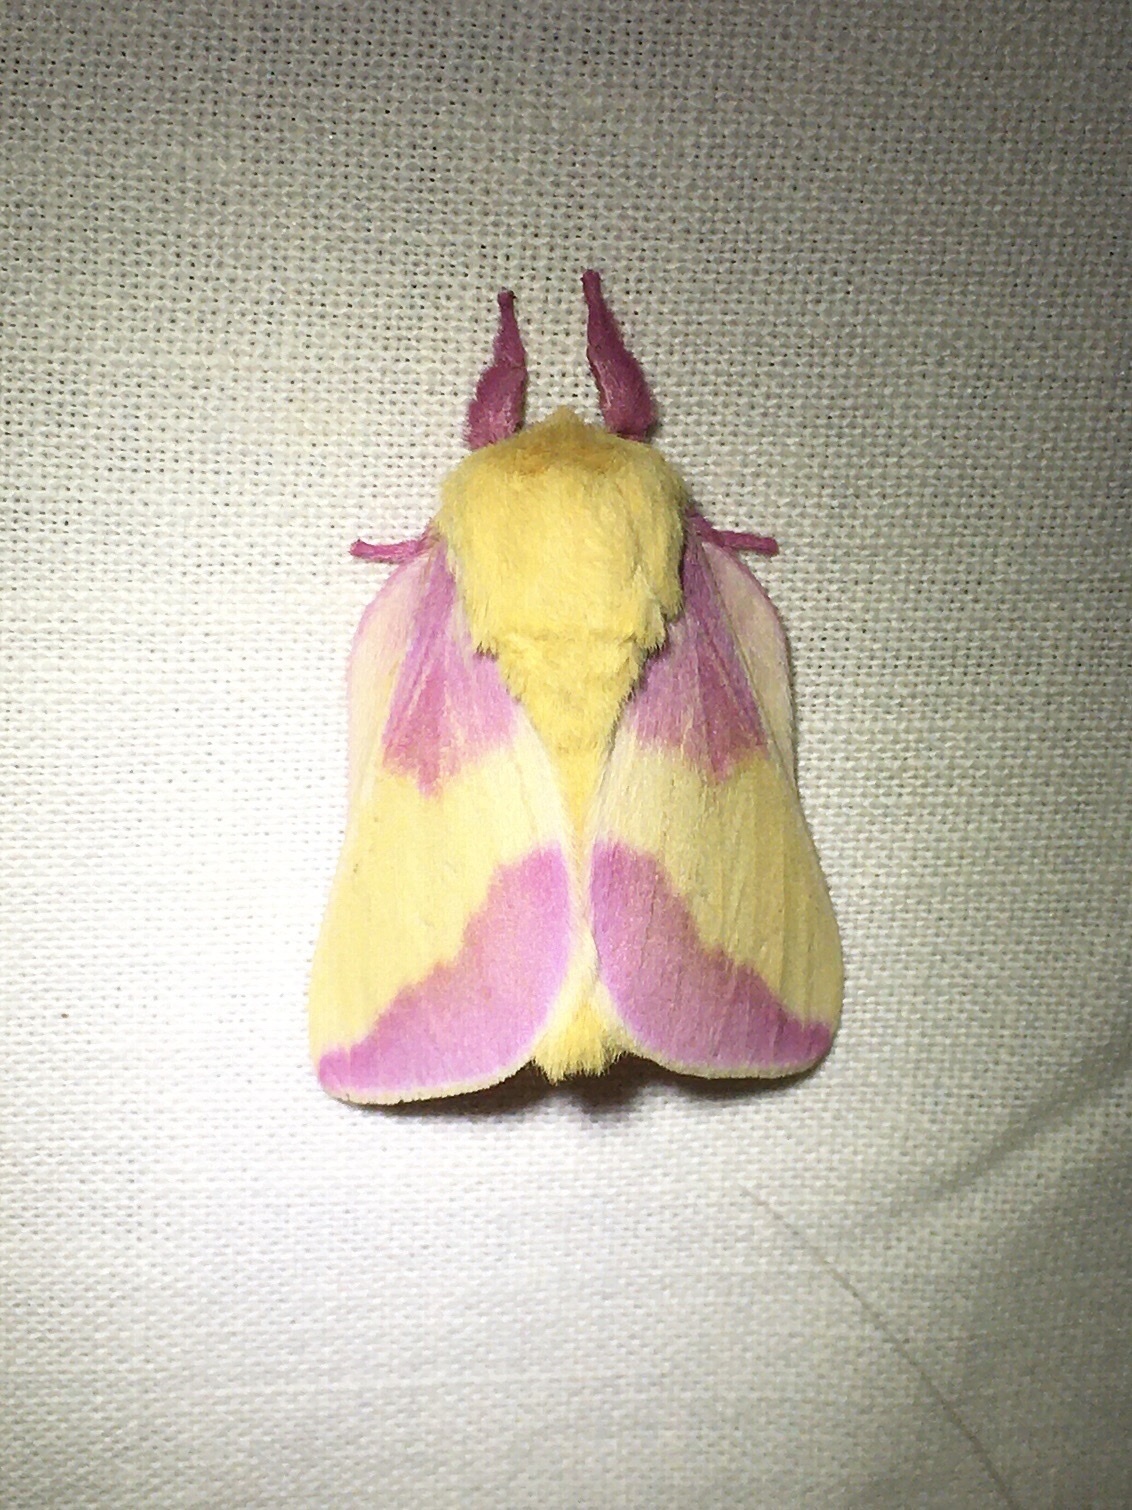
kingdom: Animalia
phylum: Arthropoda
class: Insecta
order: Lepidoptera
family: Saturniidae
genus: Dryocampa
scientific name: Dryocampa rubicunda
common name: Rosy maple moth
